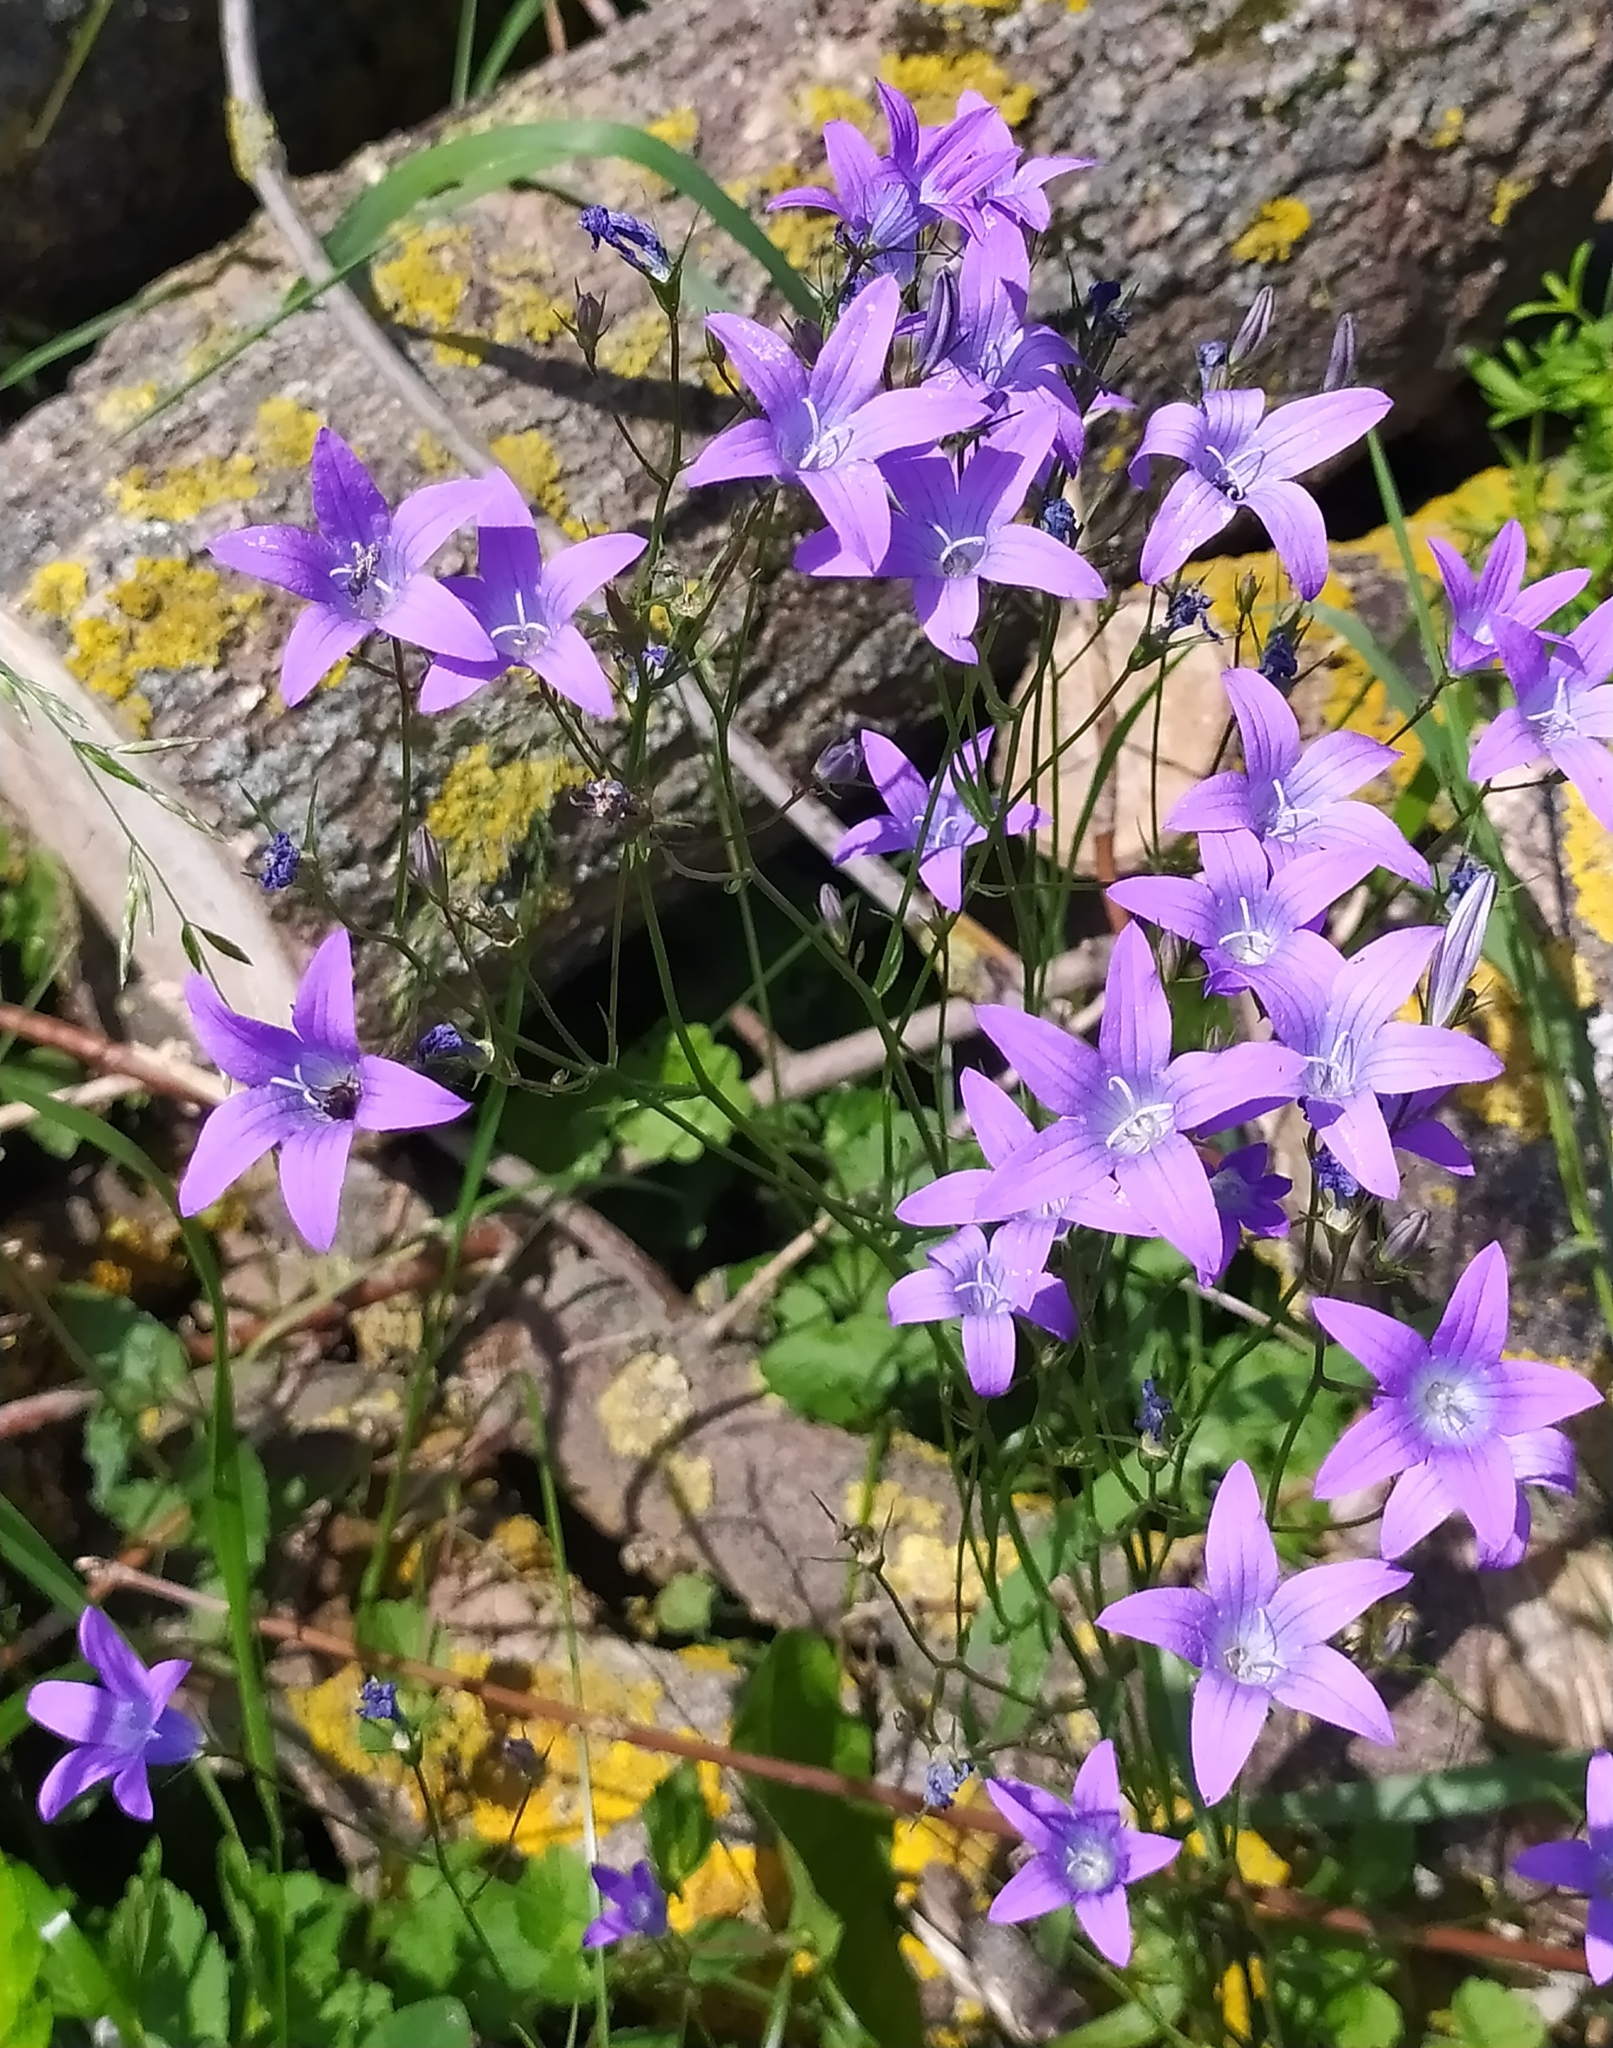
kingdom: Plantae
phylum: Tracheophyta
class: Magnoliopsida
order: Asterales
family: Campanulaceae
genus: Campanula
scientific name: Campanula patula
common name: Spreading bellflower
